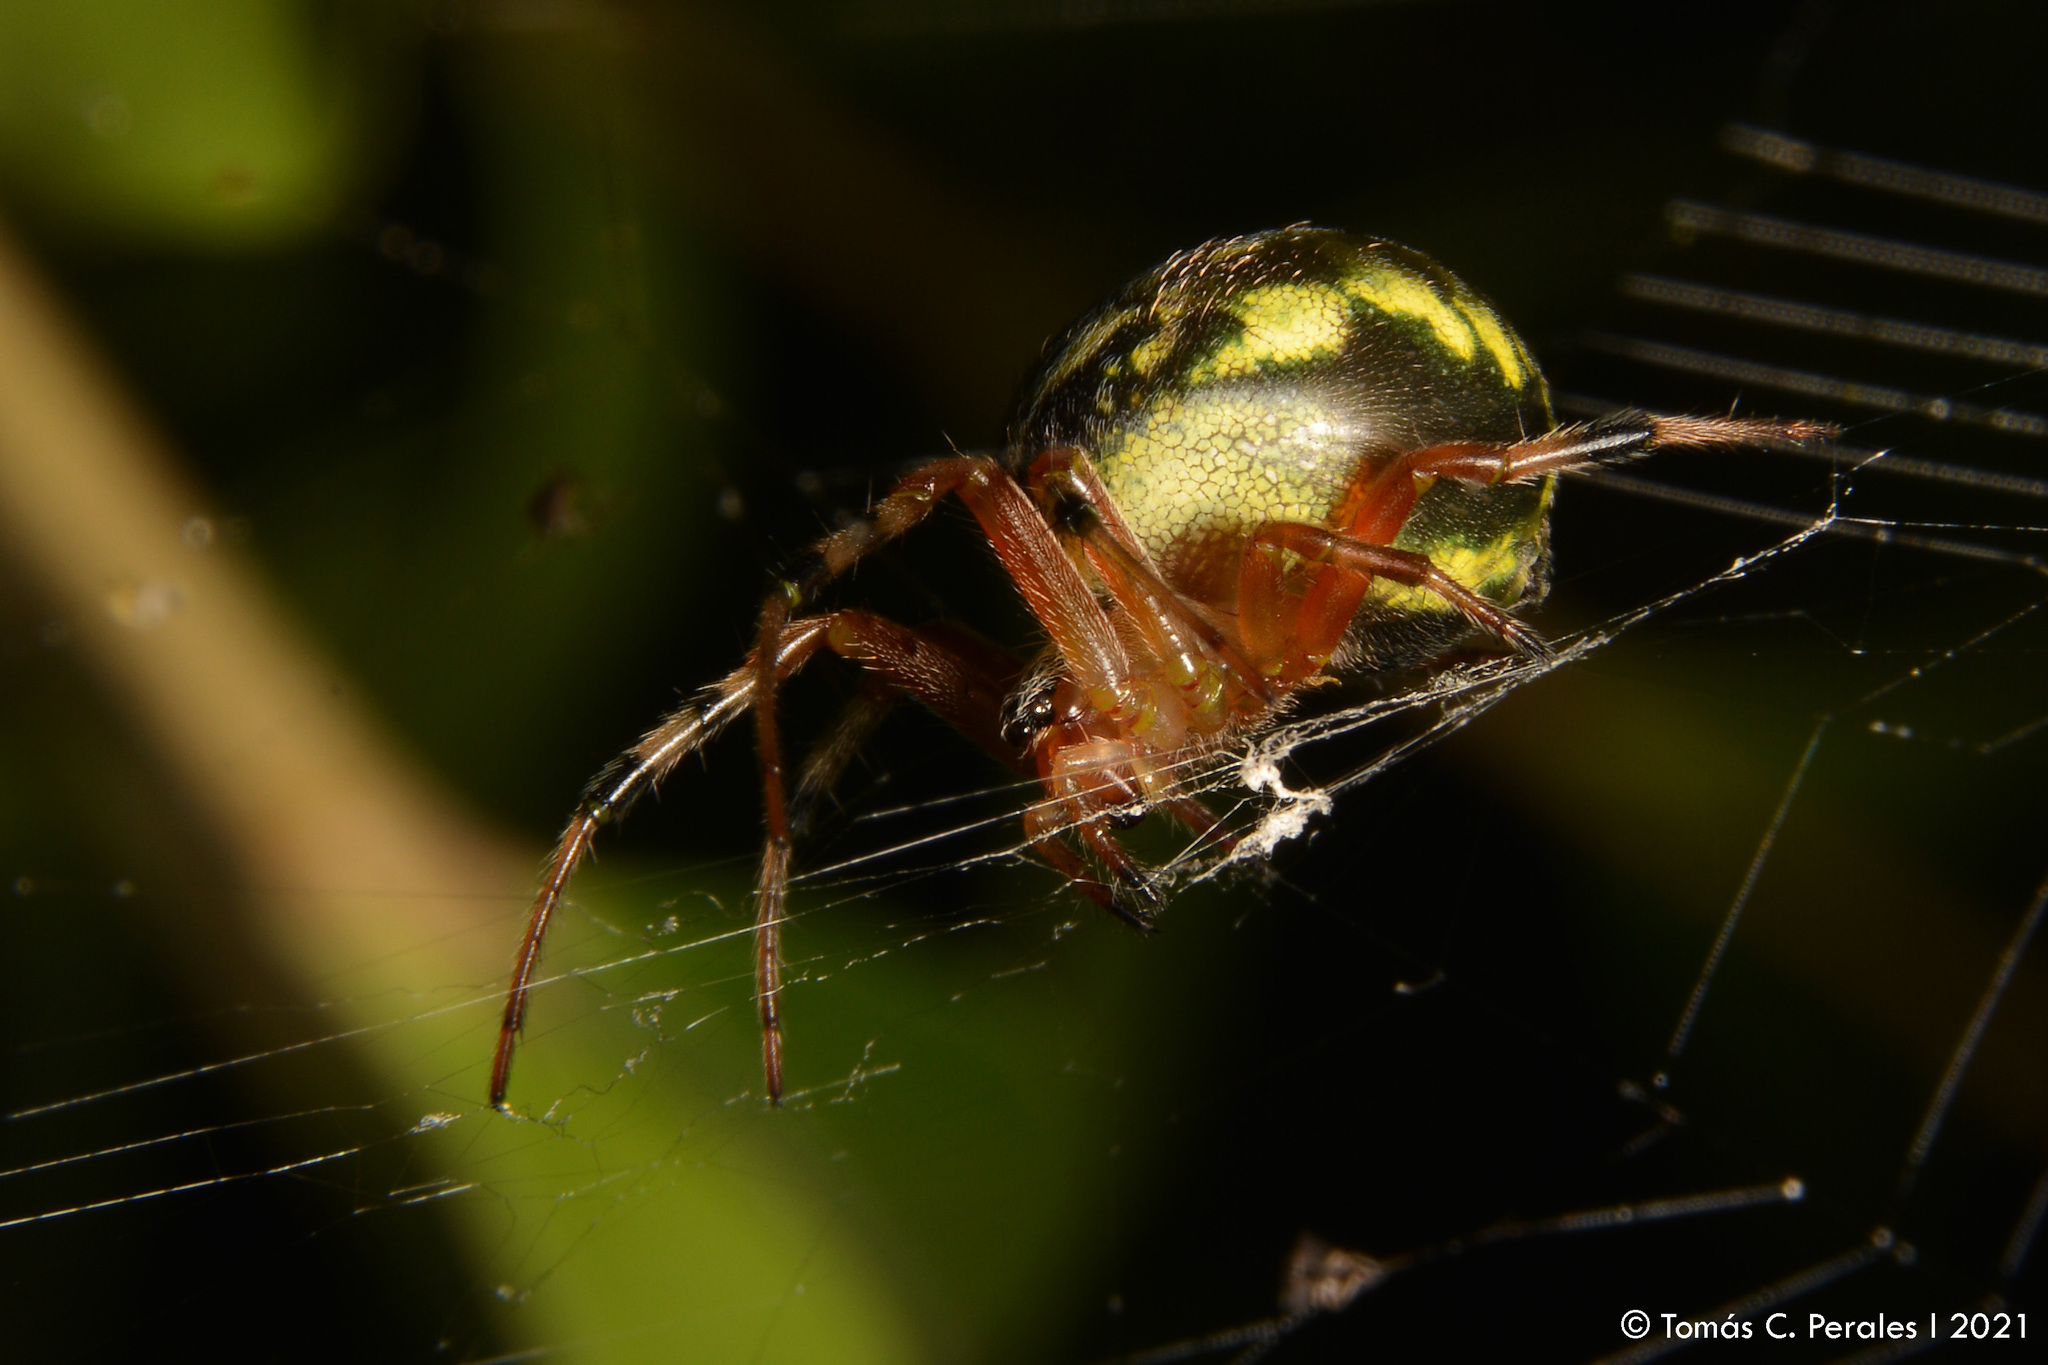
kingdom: Animalia
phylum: Arthropoda
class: Arachnida
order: Araneae
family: Araneidae
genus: Araneus
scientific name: Araneus workmani
